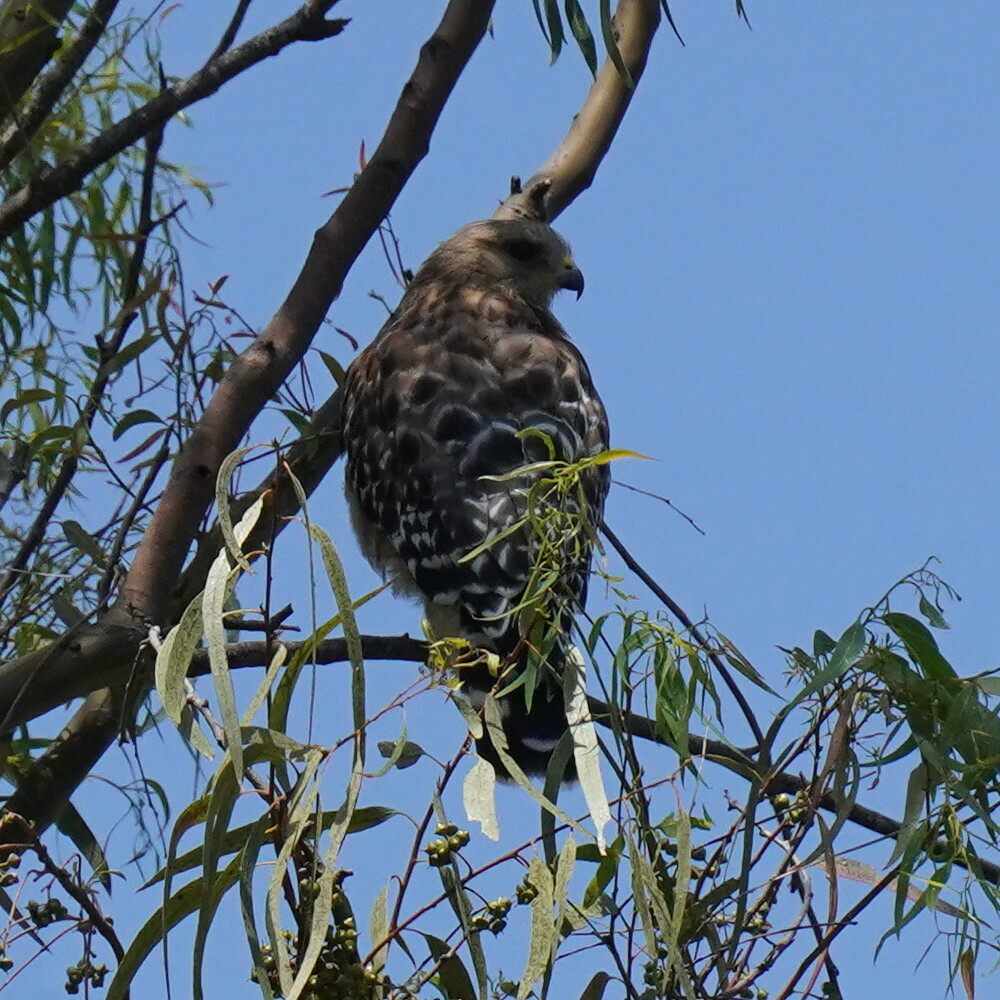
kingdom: Animalia
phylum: Chordata
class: Aves
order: Accipitriformes
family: Accipitridae
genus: Buteo
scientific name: Buteo lineatus
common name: Red-shouldered hawk
